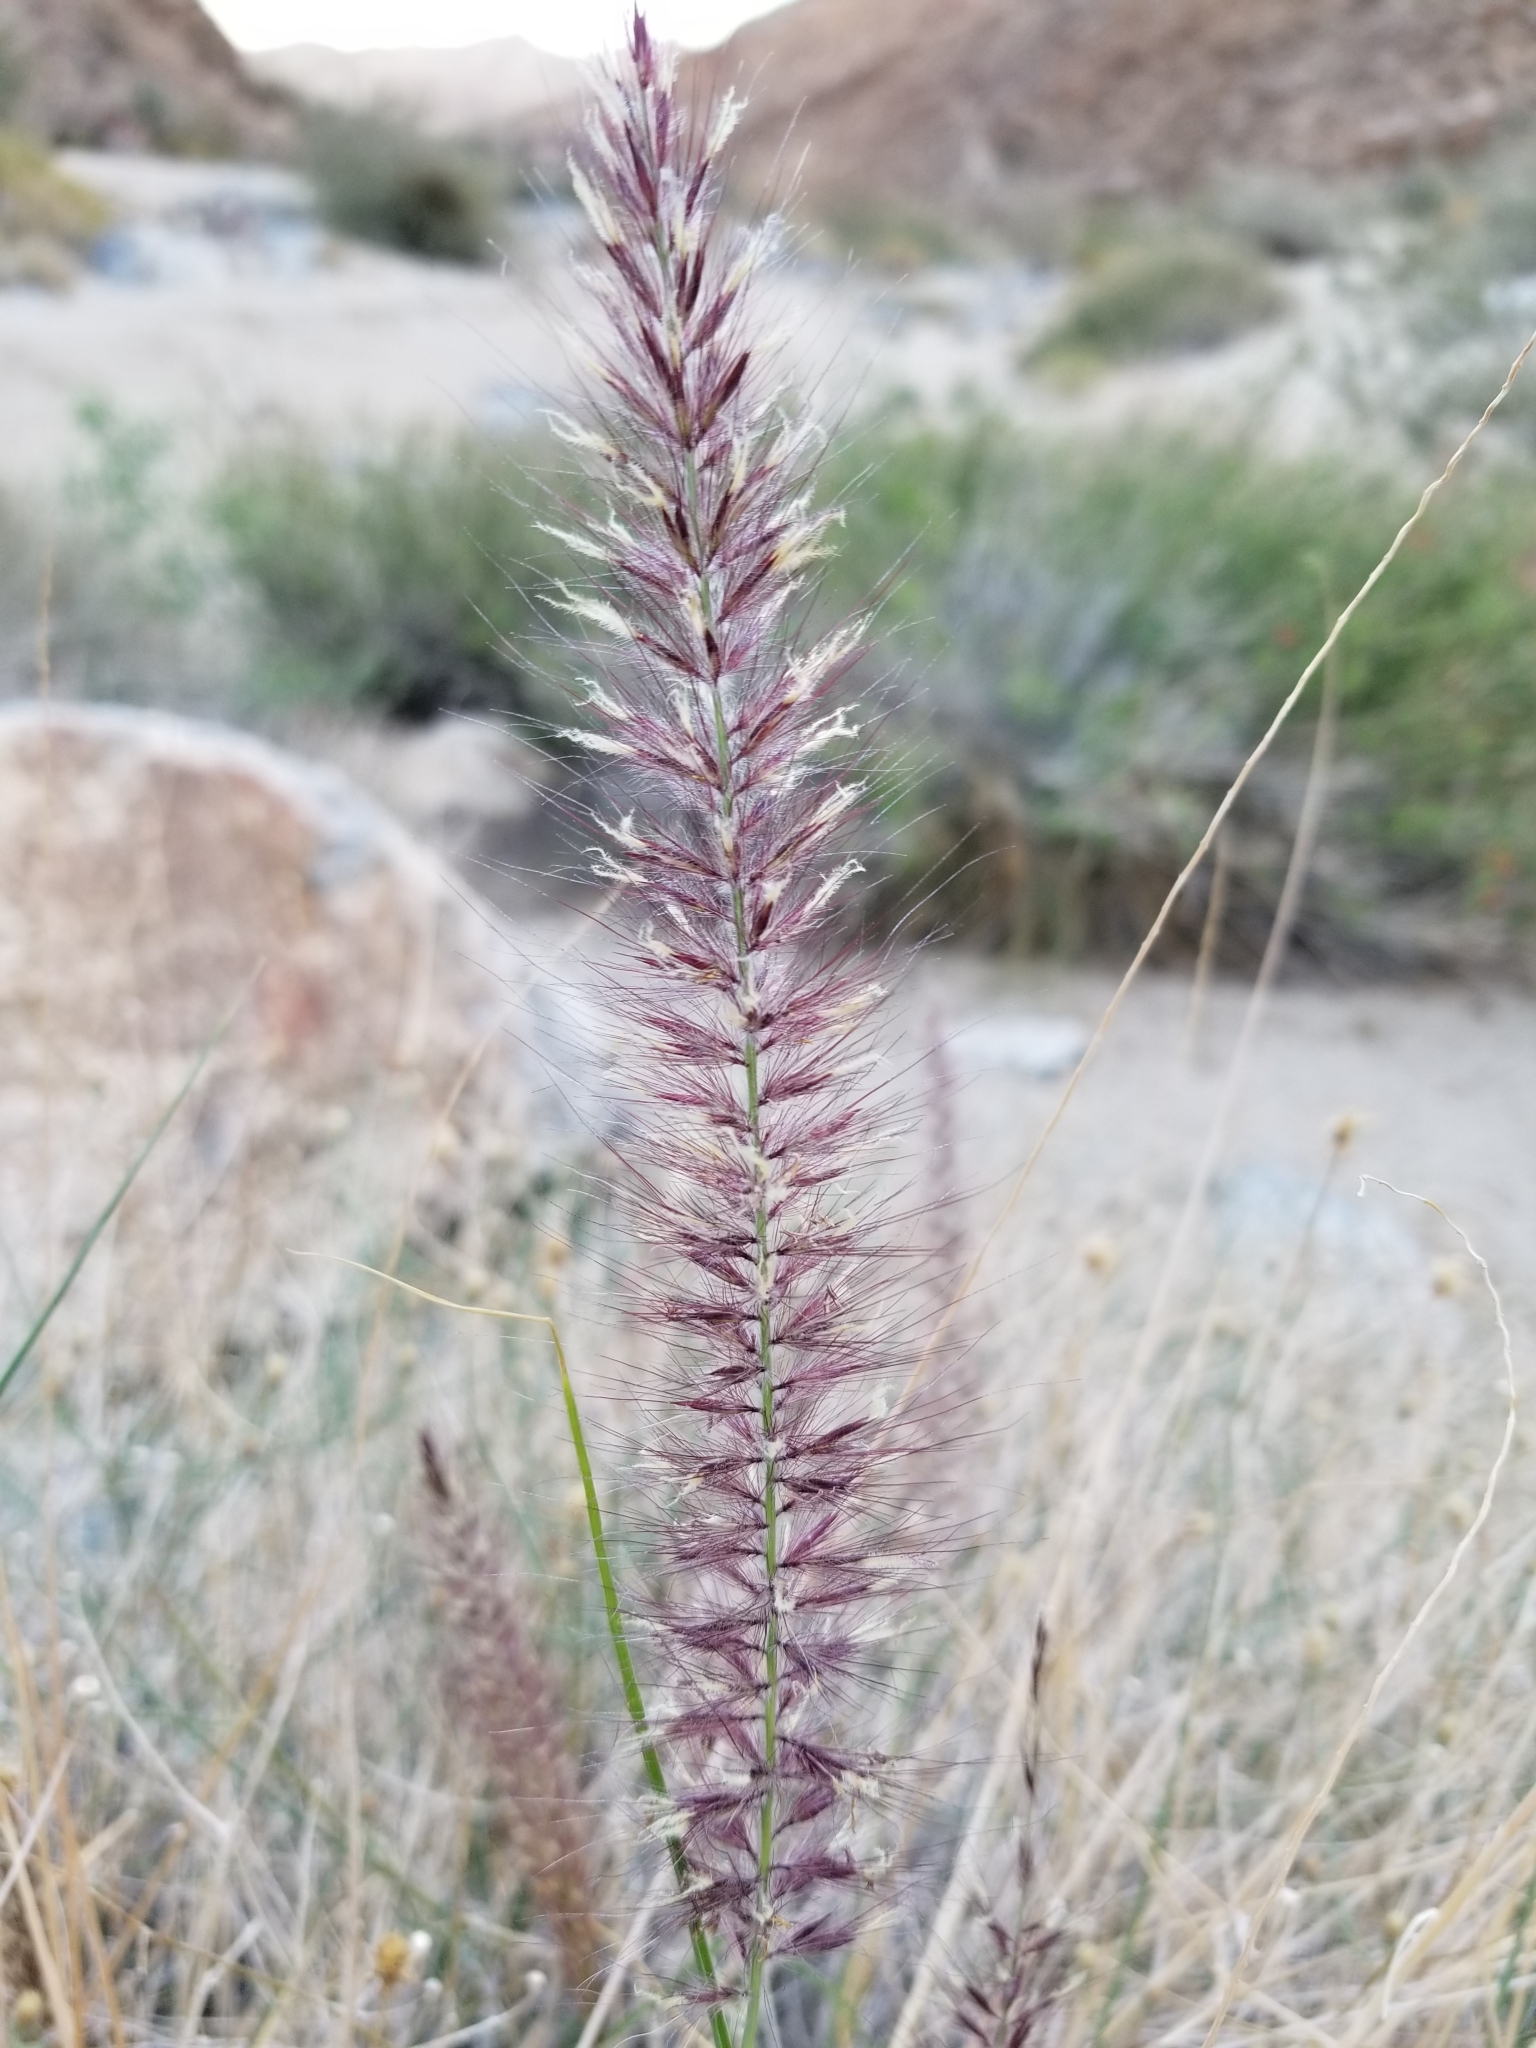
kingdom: Plantae
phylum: Tracheophyta
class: Liliopsida
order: Poales
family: Poaceae
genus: Cenchrus
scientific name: Cenchrus setaceus
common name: Crimson fountaingrass
